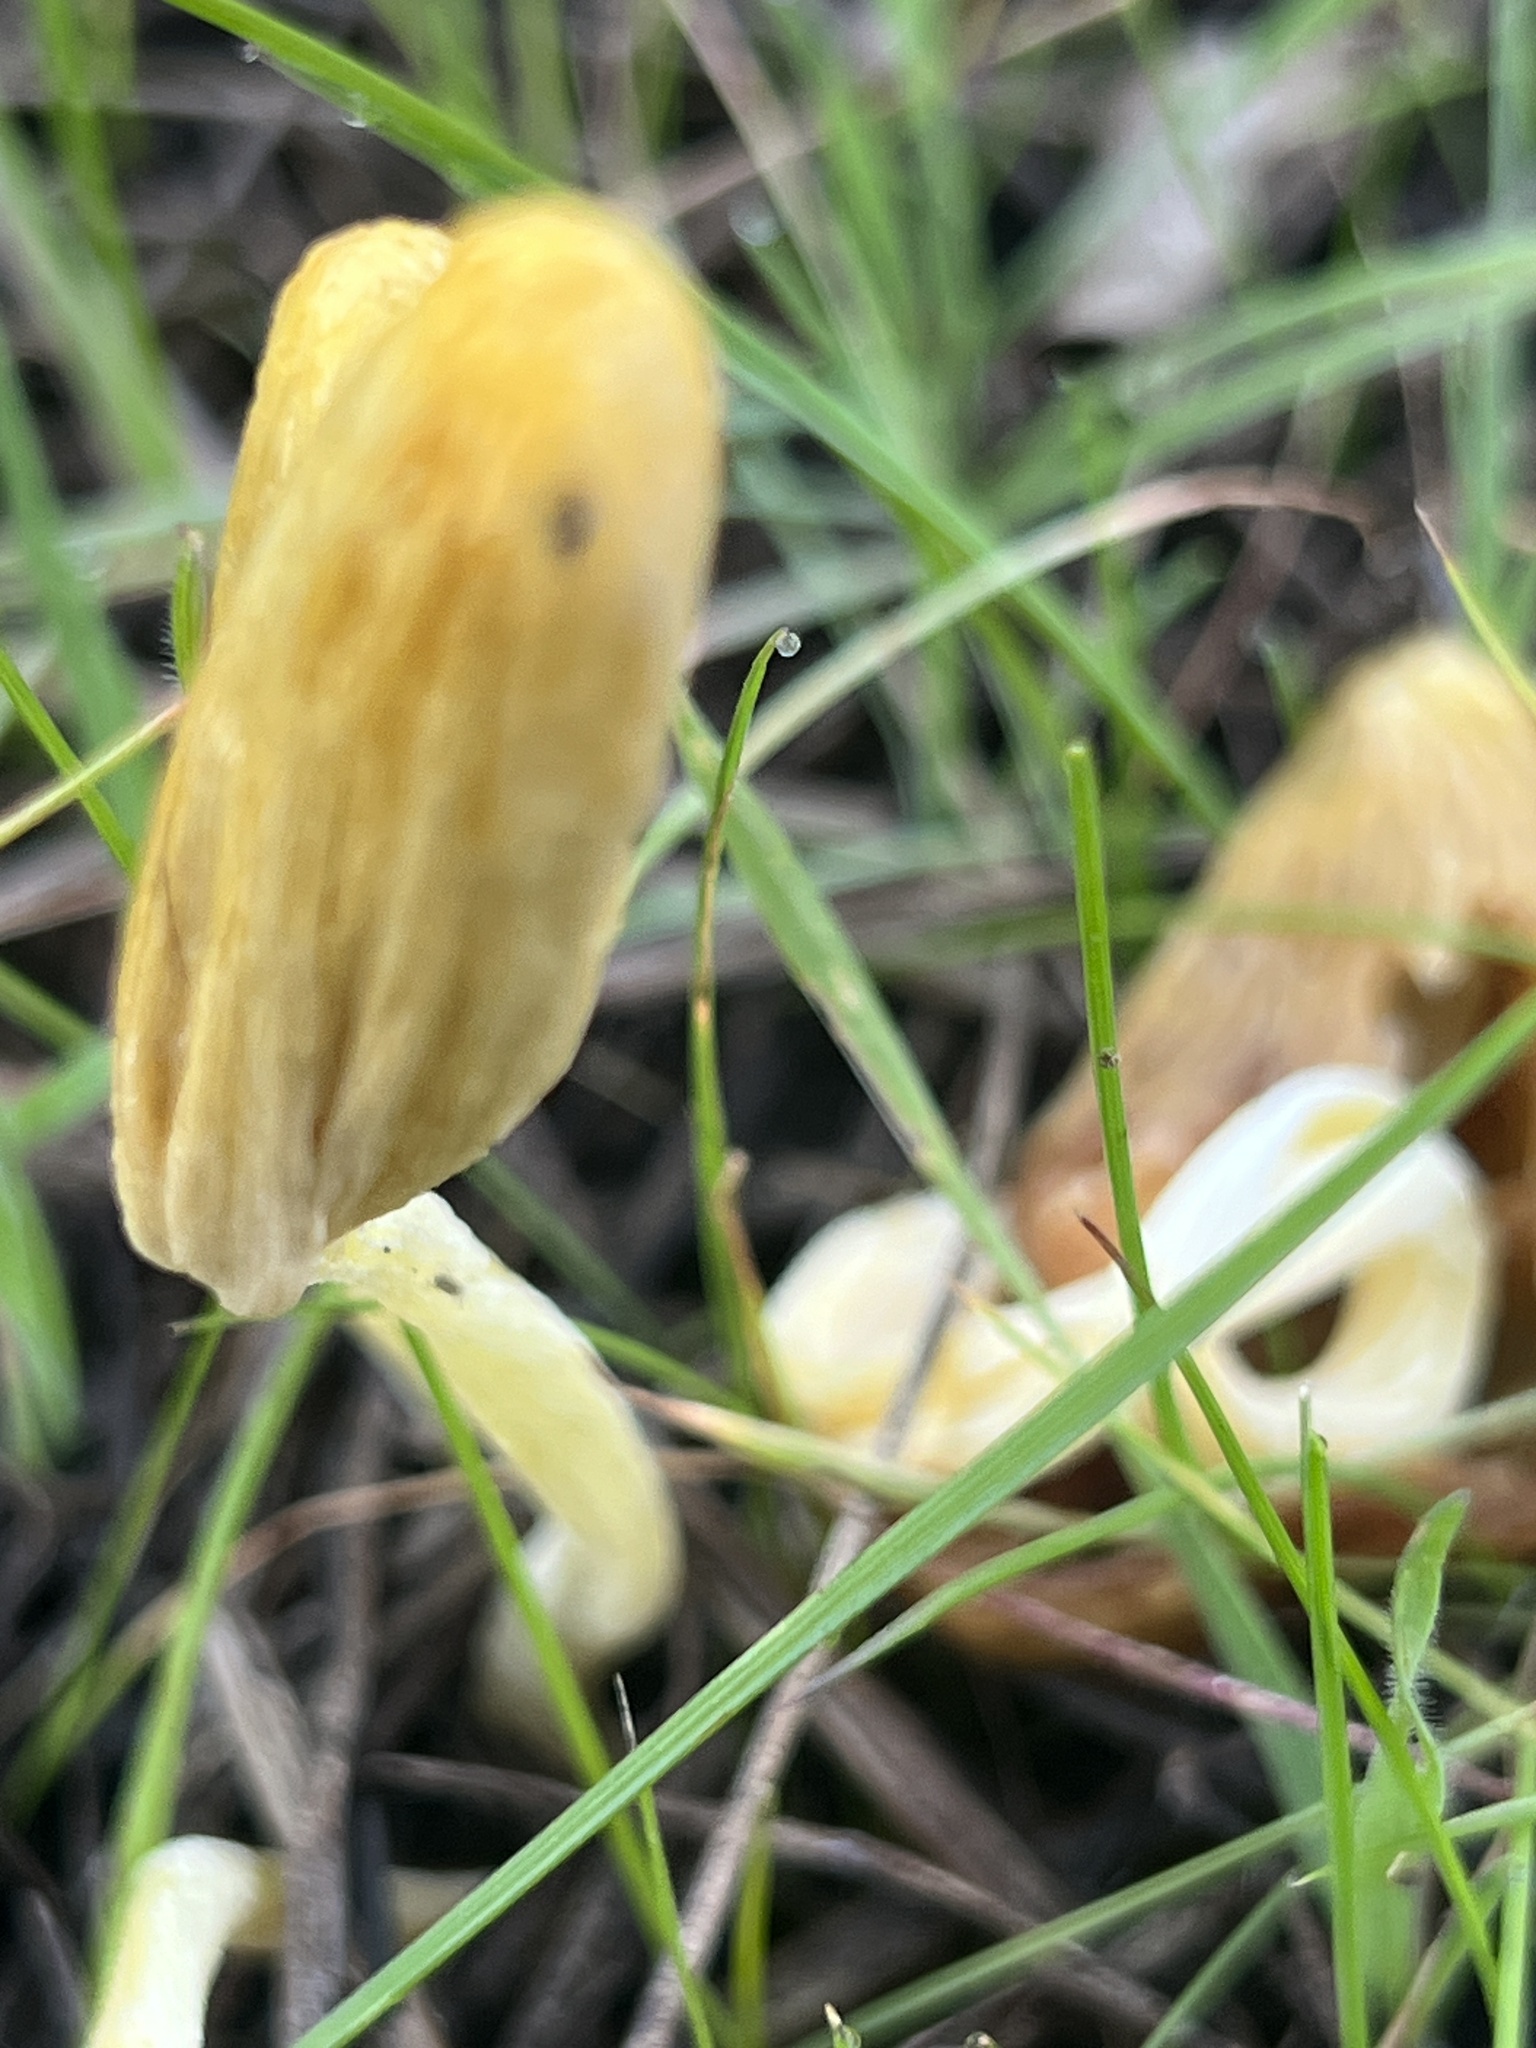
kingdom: Fungi
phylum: Basidiomycota
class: Agaricomycetes
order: Agaricales
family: Bolbitiaceae
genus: Bolbitius
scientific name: Bolbitius titubans
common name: Yellow fieldcap
